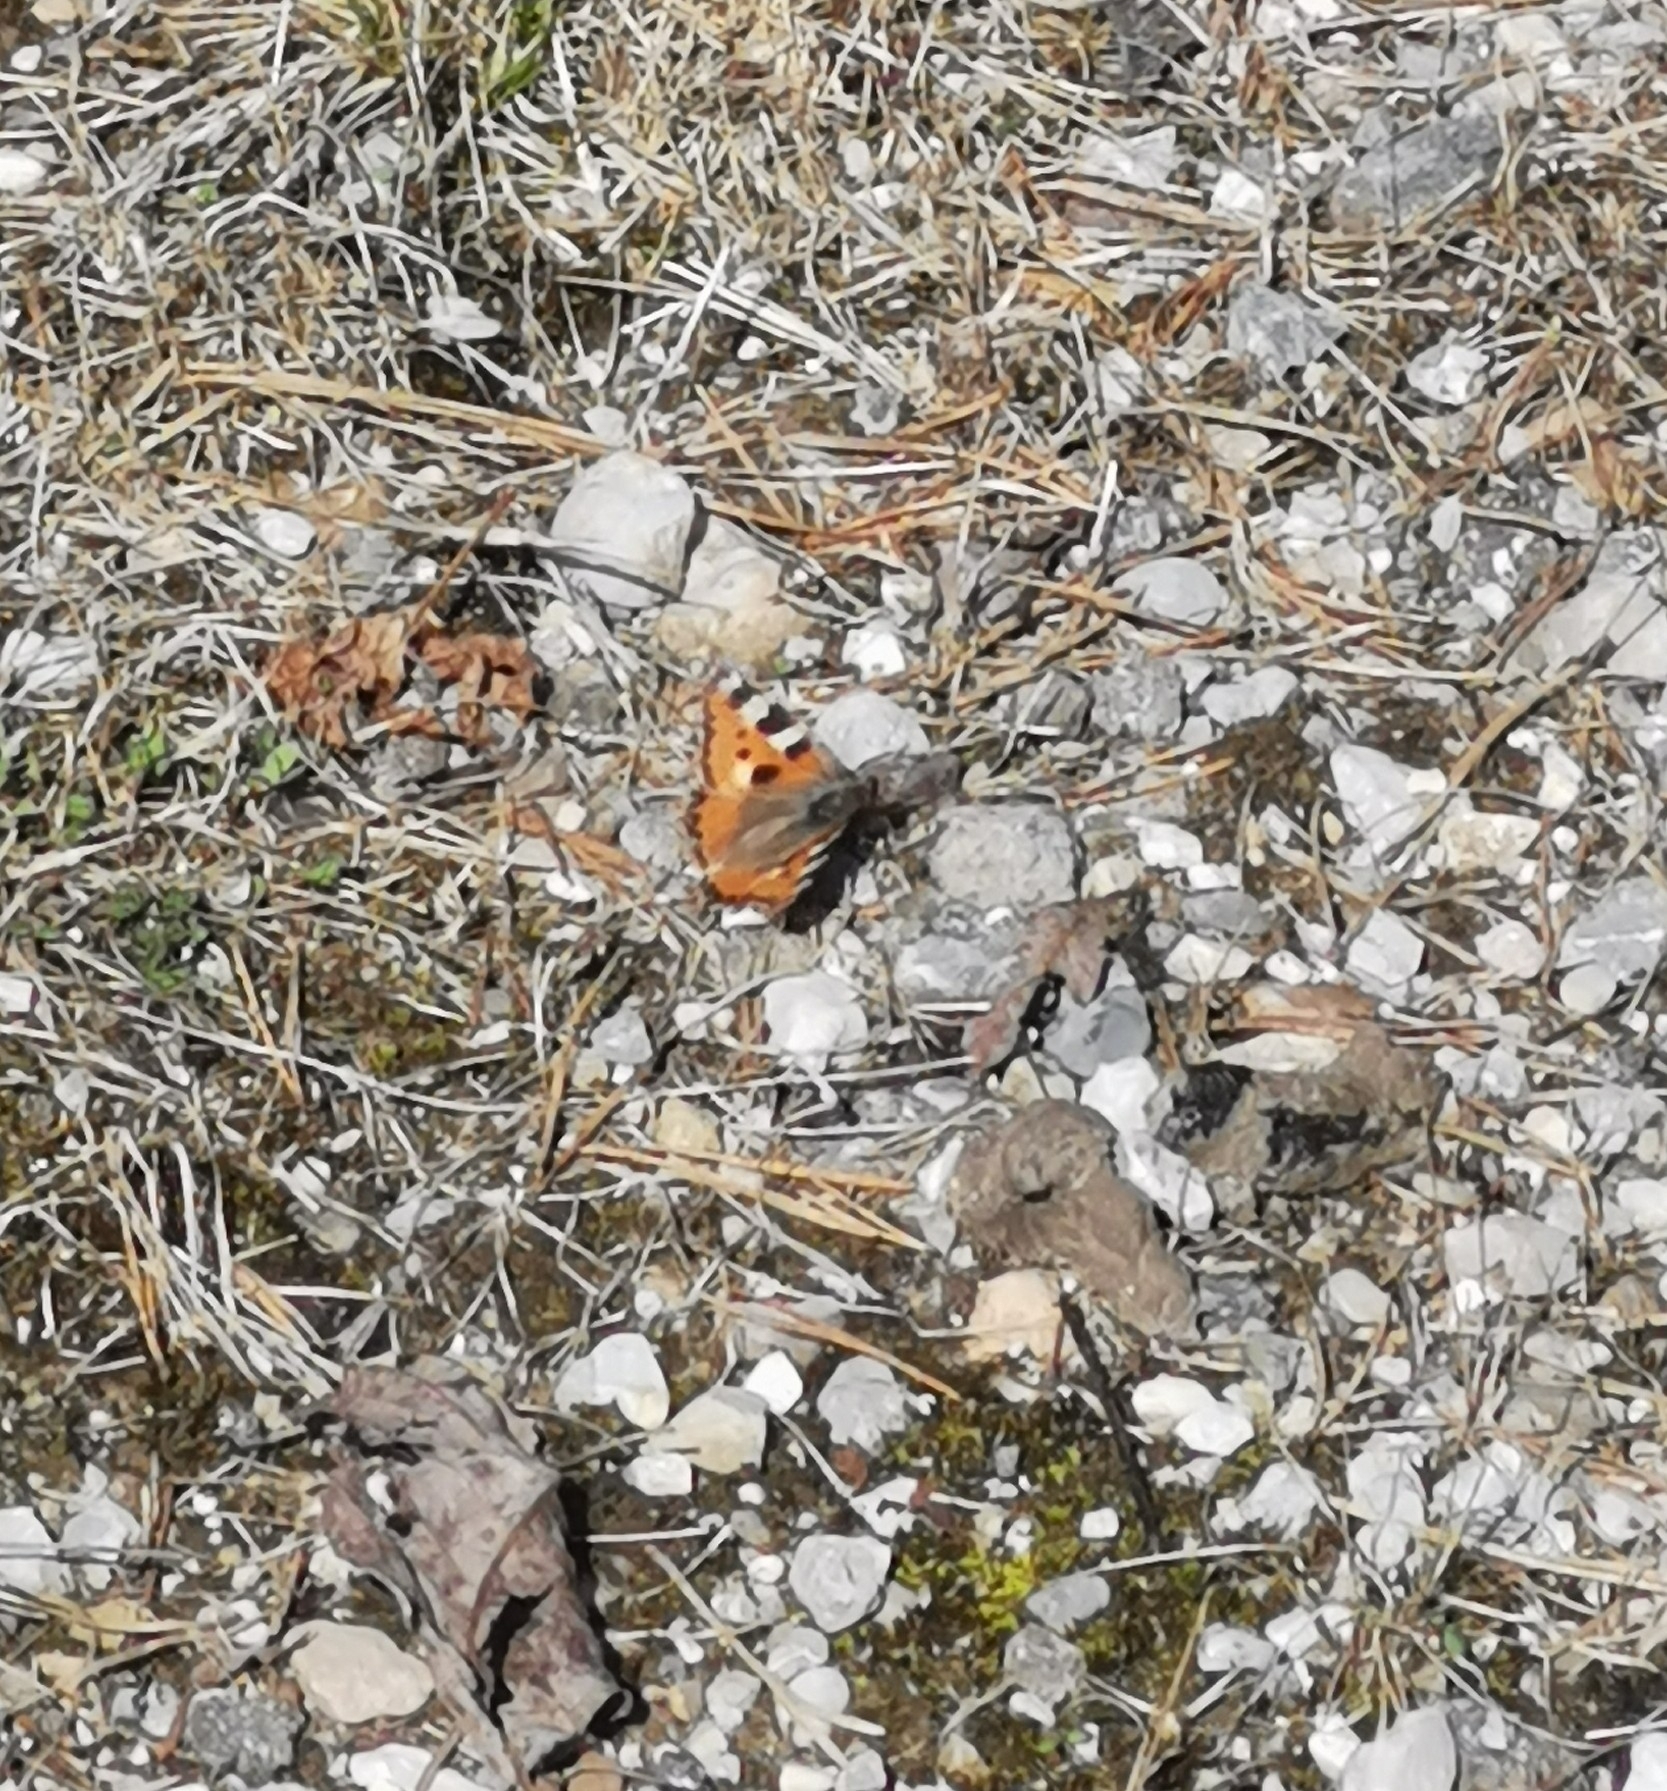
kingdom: Animalia
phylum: Arthropoda
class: Insecta
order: Lepidoptera
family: Nymphalidae
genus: Aglais
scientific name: Aglais urticae
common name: Small tortoiseshell
